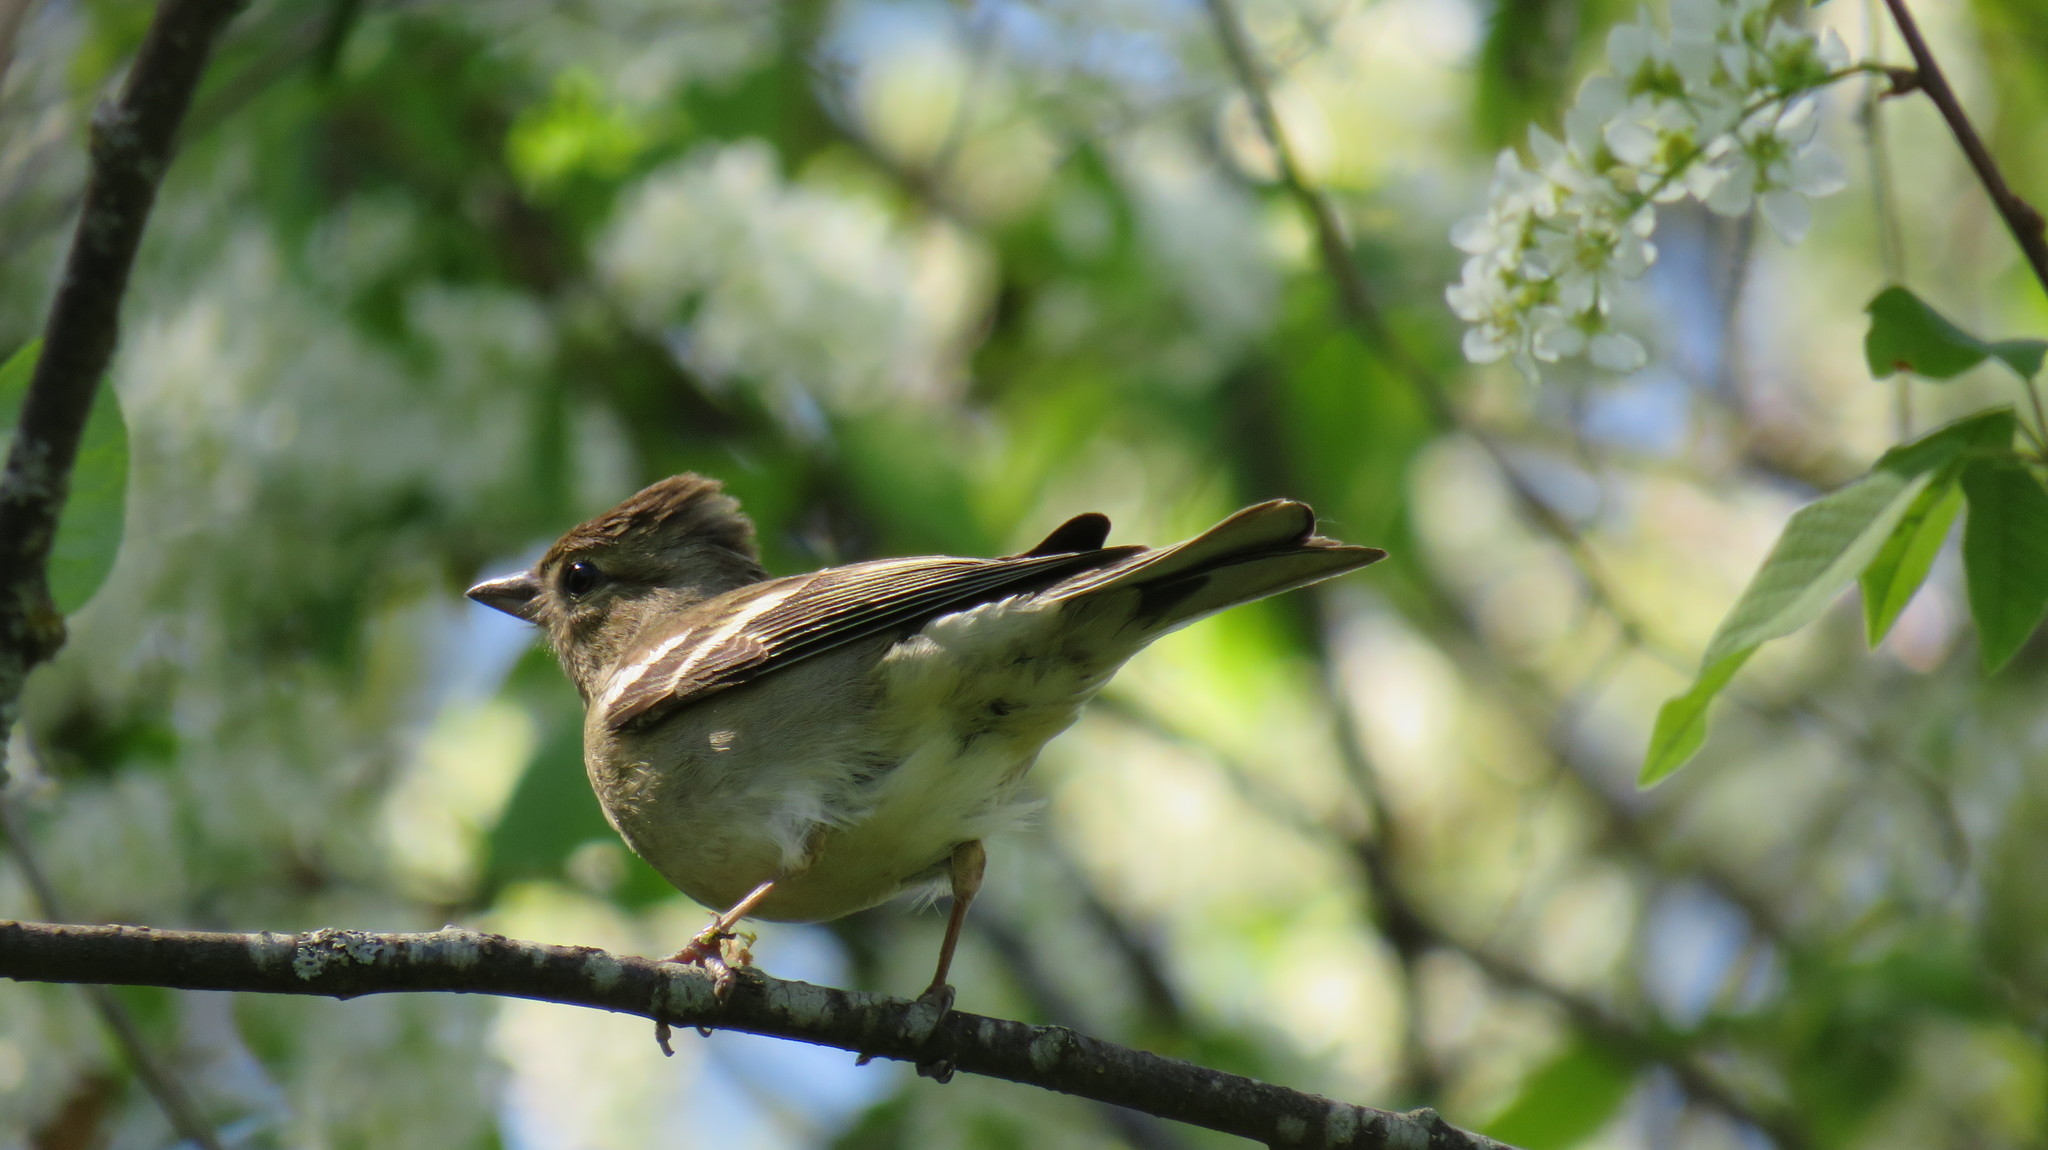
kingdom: Animalia
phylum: Chordata
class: Aves
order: Passeriformes
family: Fringillidae
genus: Fringilla
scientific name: Fringilla coelebs
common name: Common chaffinch
